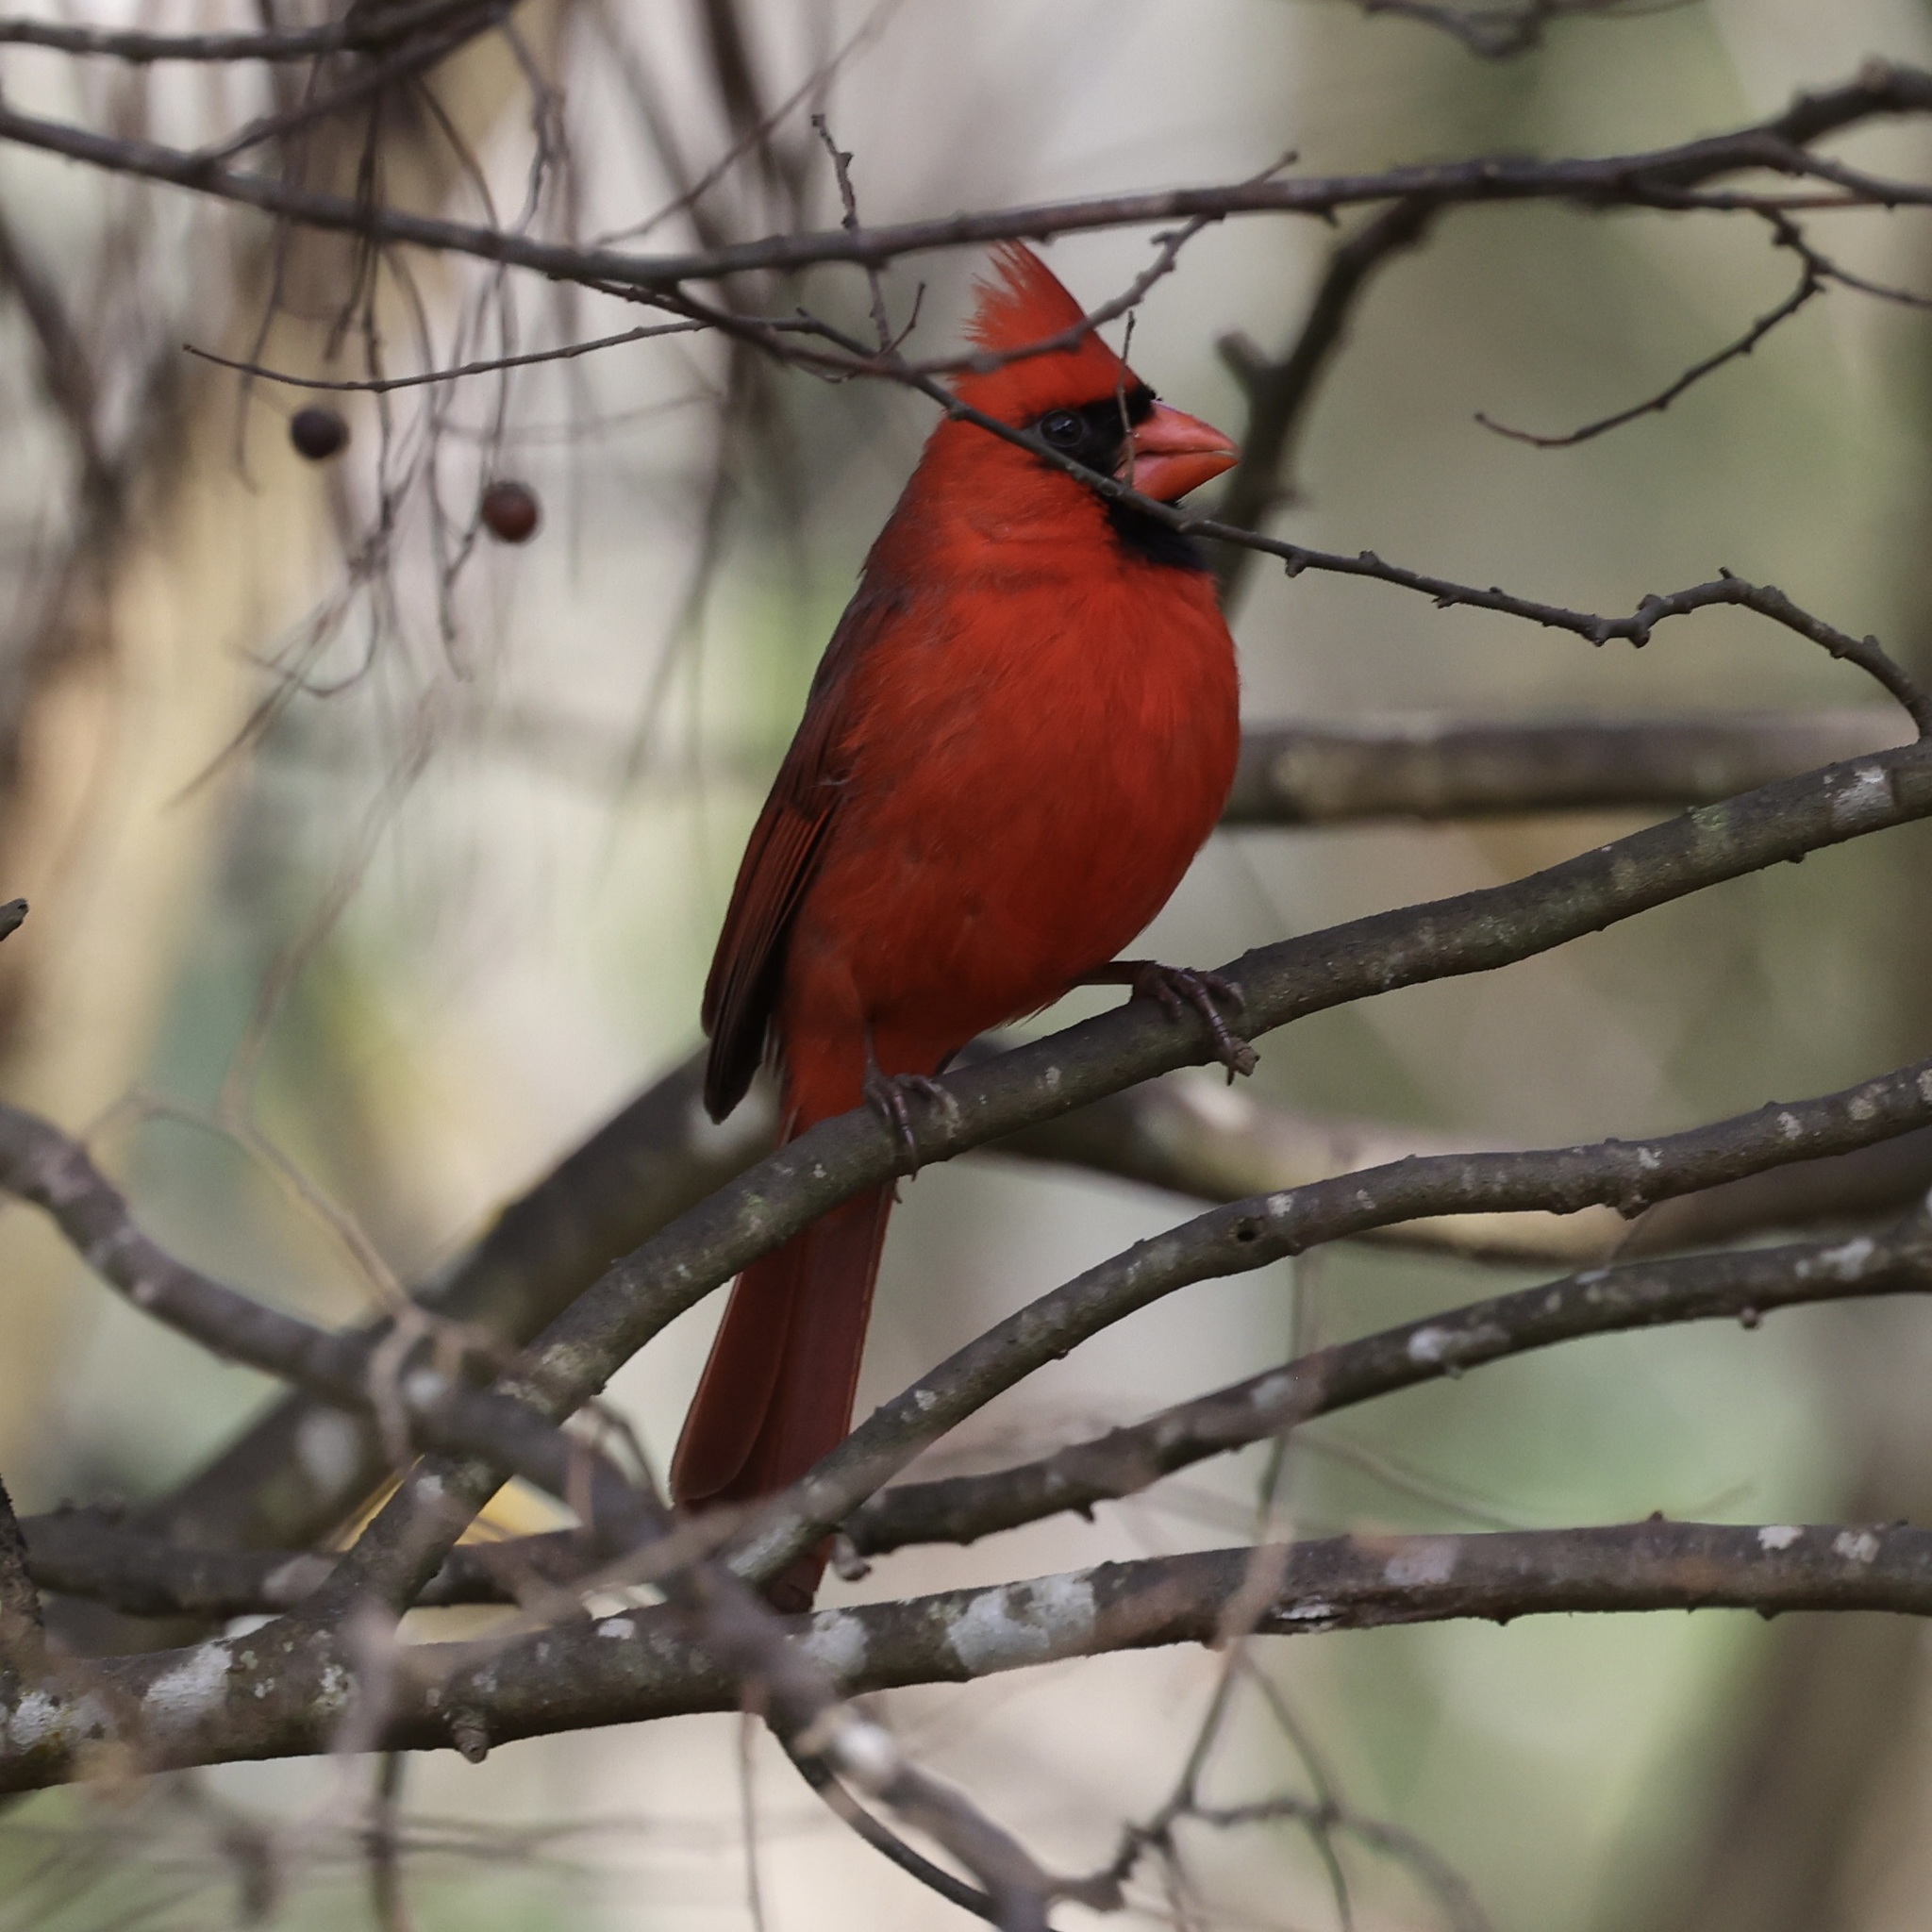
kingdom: Animalia
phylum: Chordata
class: Aves
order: Passeriformes
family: Cardinalidae
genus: Cardinalis
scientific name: Cardinalis cardinalis
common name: Northern cardinal
